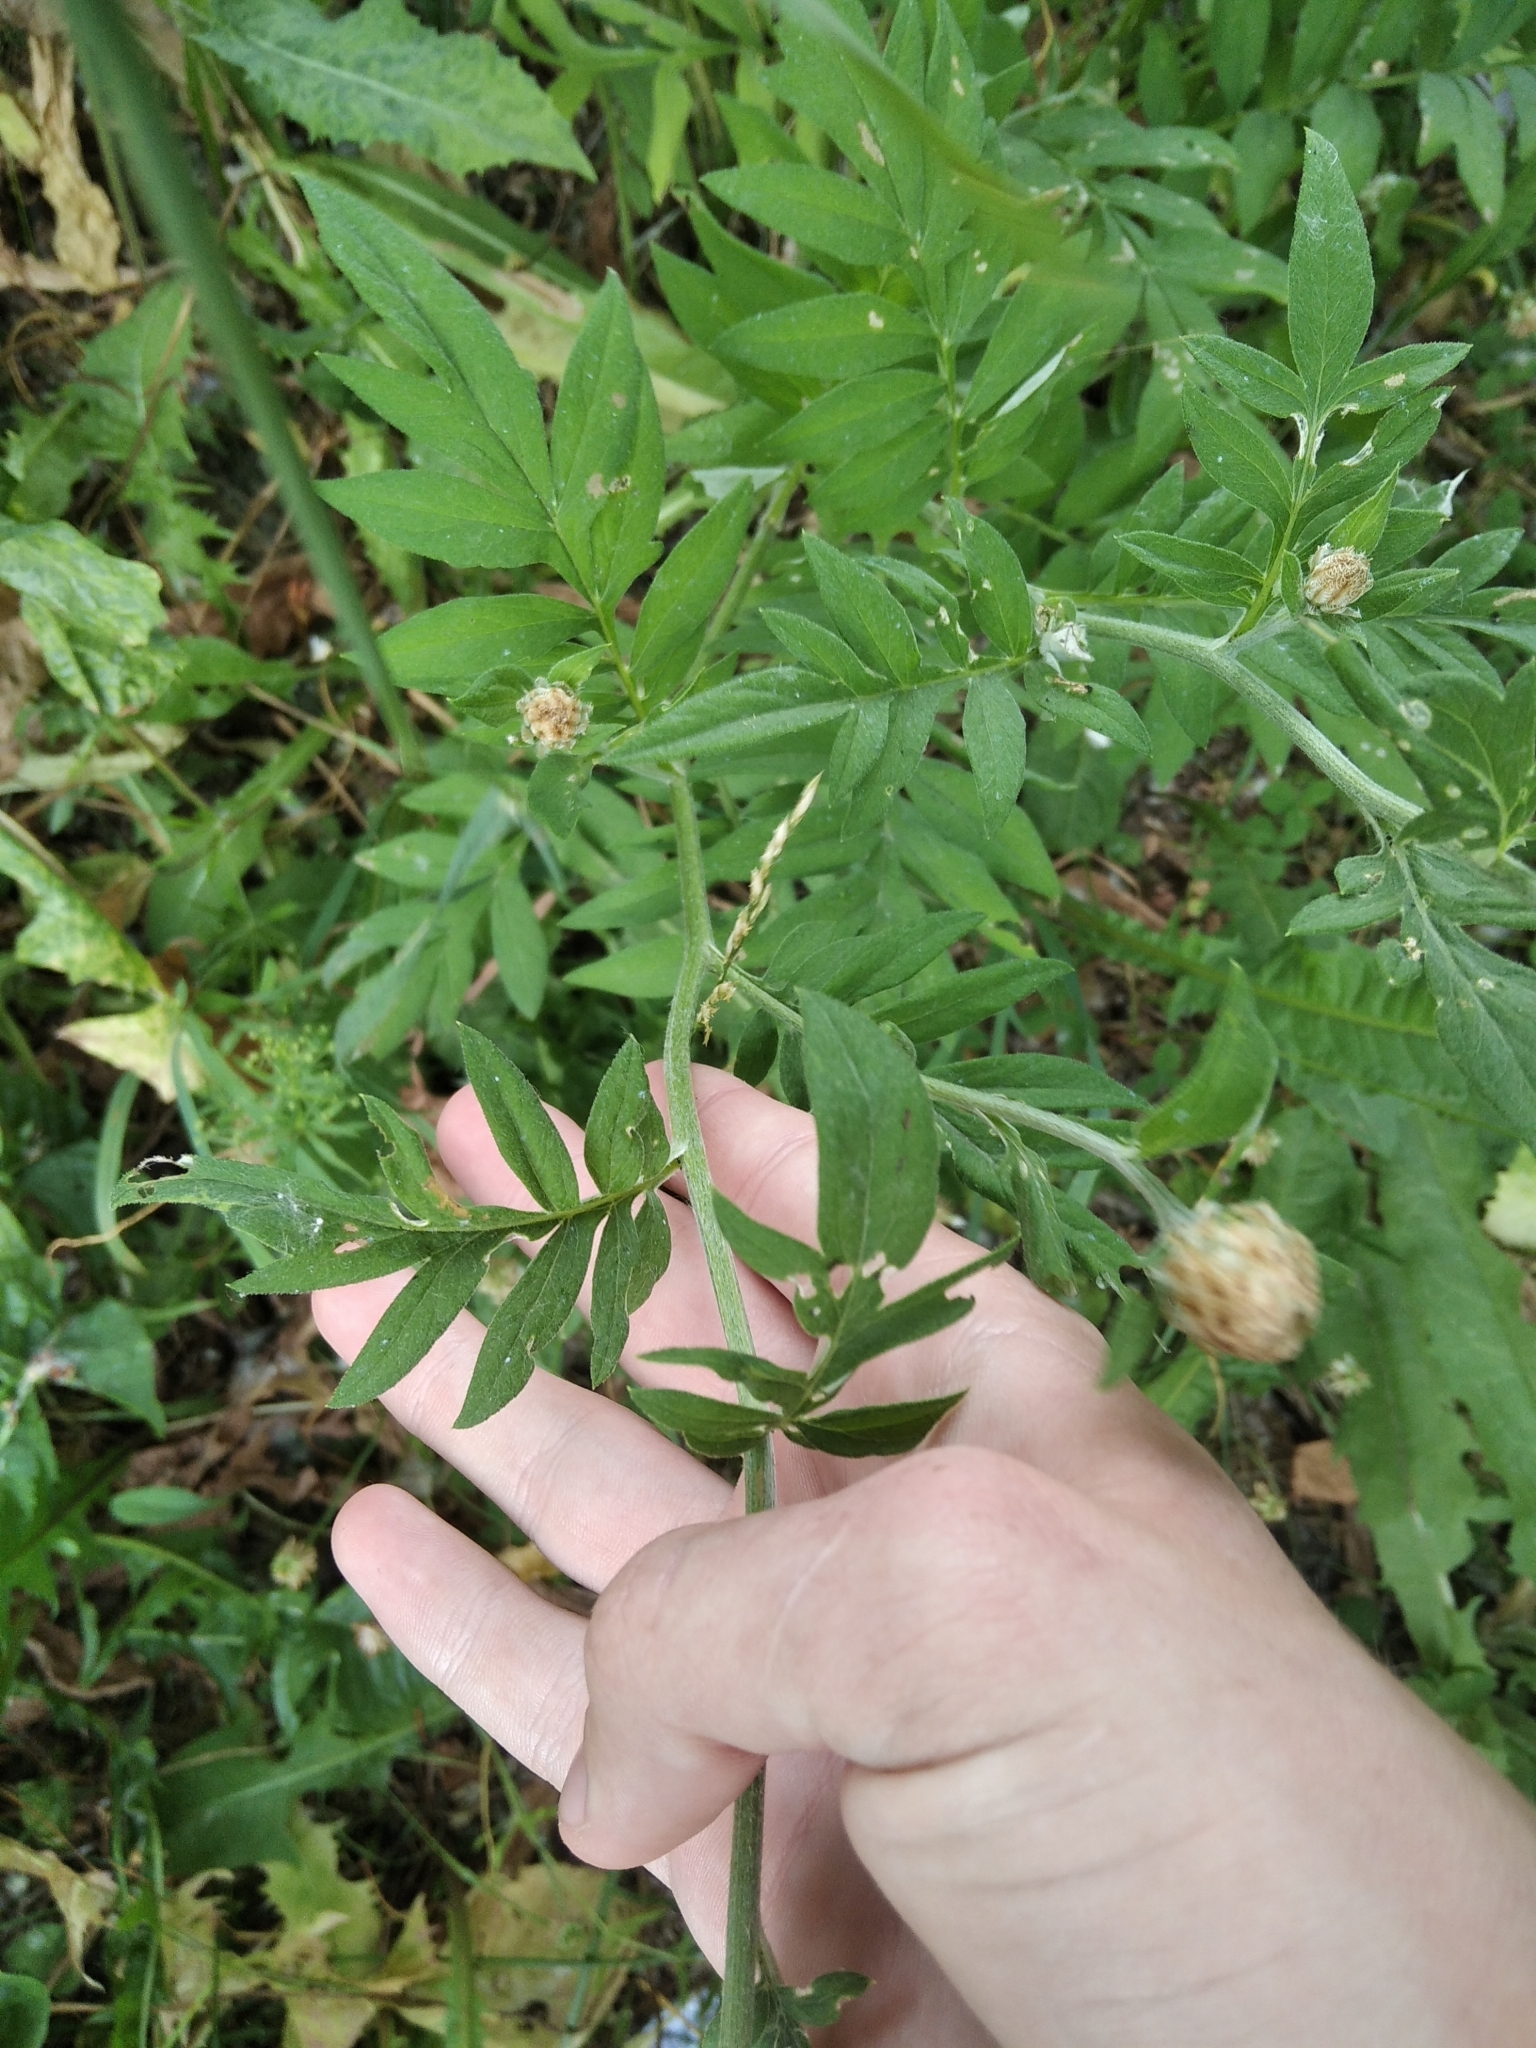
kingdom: Plantae
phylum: Tracheophyta
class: Magnoliopsida
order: Asterales
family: Asteraceae
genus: Psephellus
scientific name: Psephellus dealbatus
